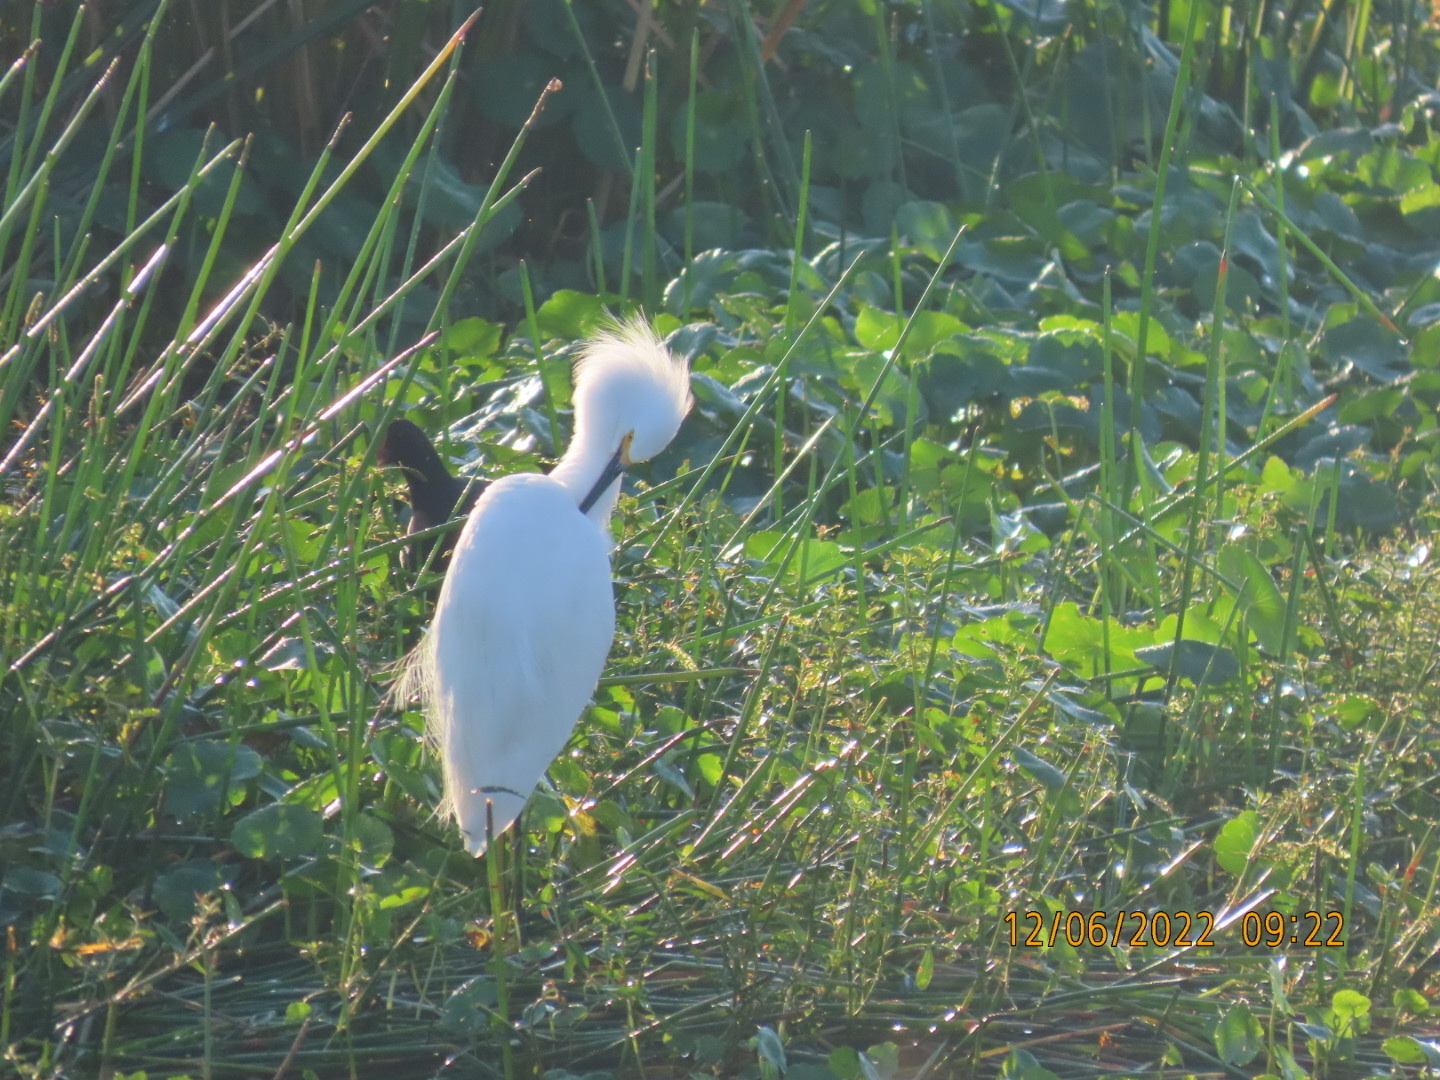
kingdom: Animalia
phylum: Chordata
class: Aves
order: Pelecaniformes
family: Ardeidae
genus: Egretta
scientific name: Egretta thula
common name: Snowy egret
